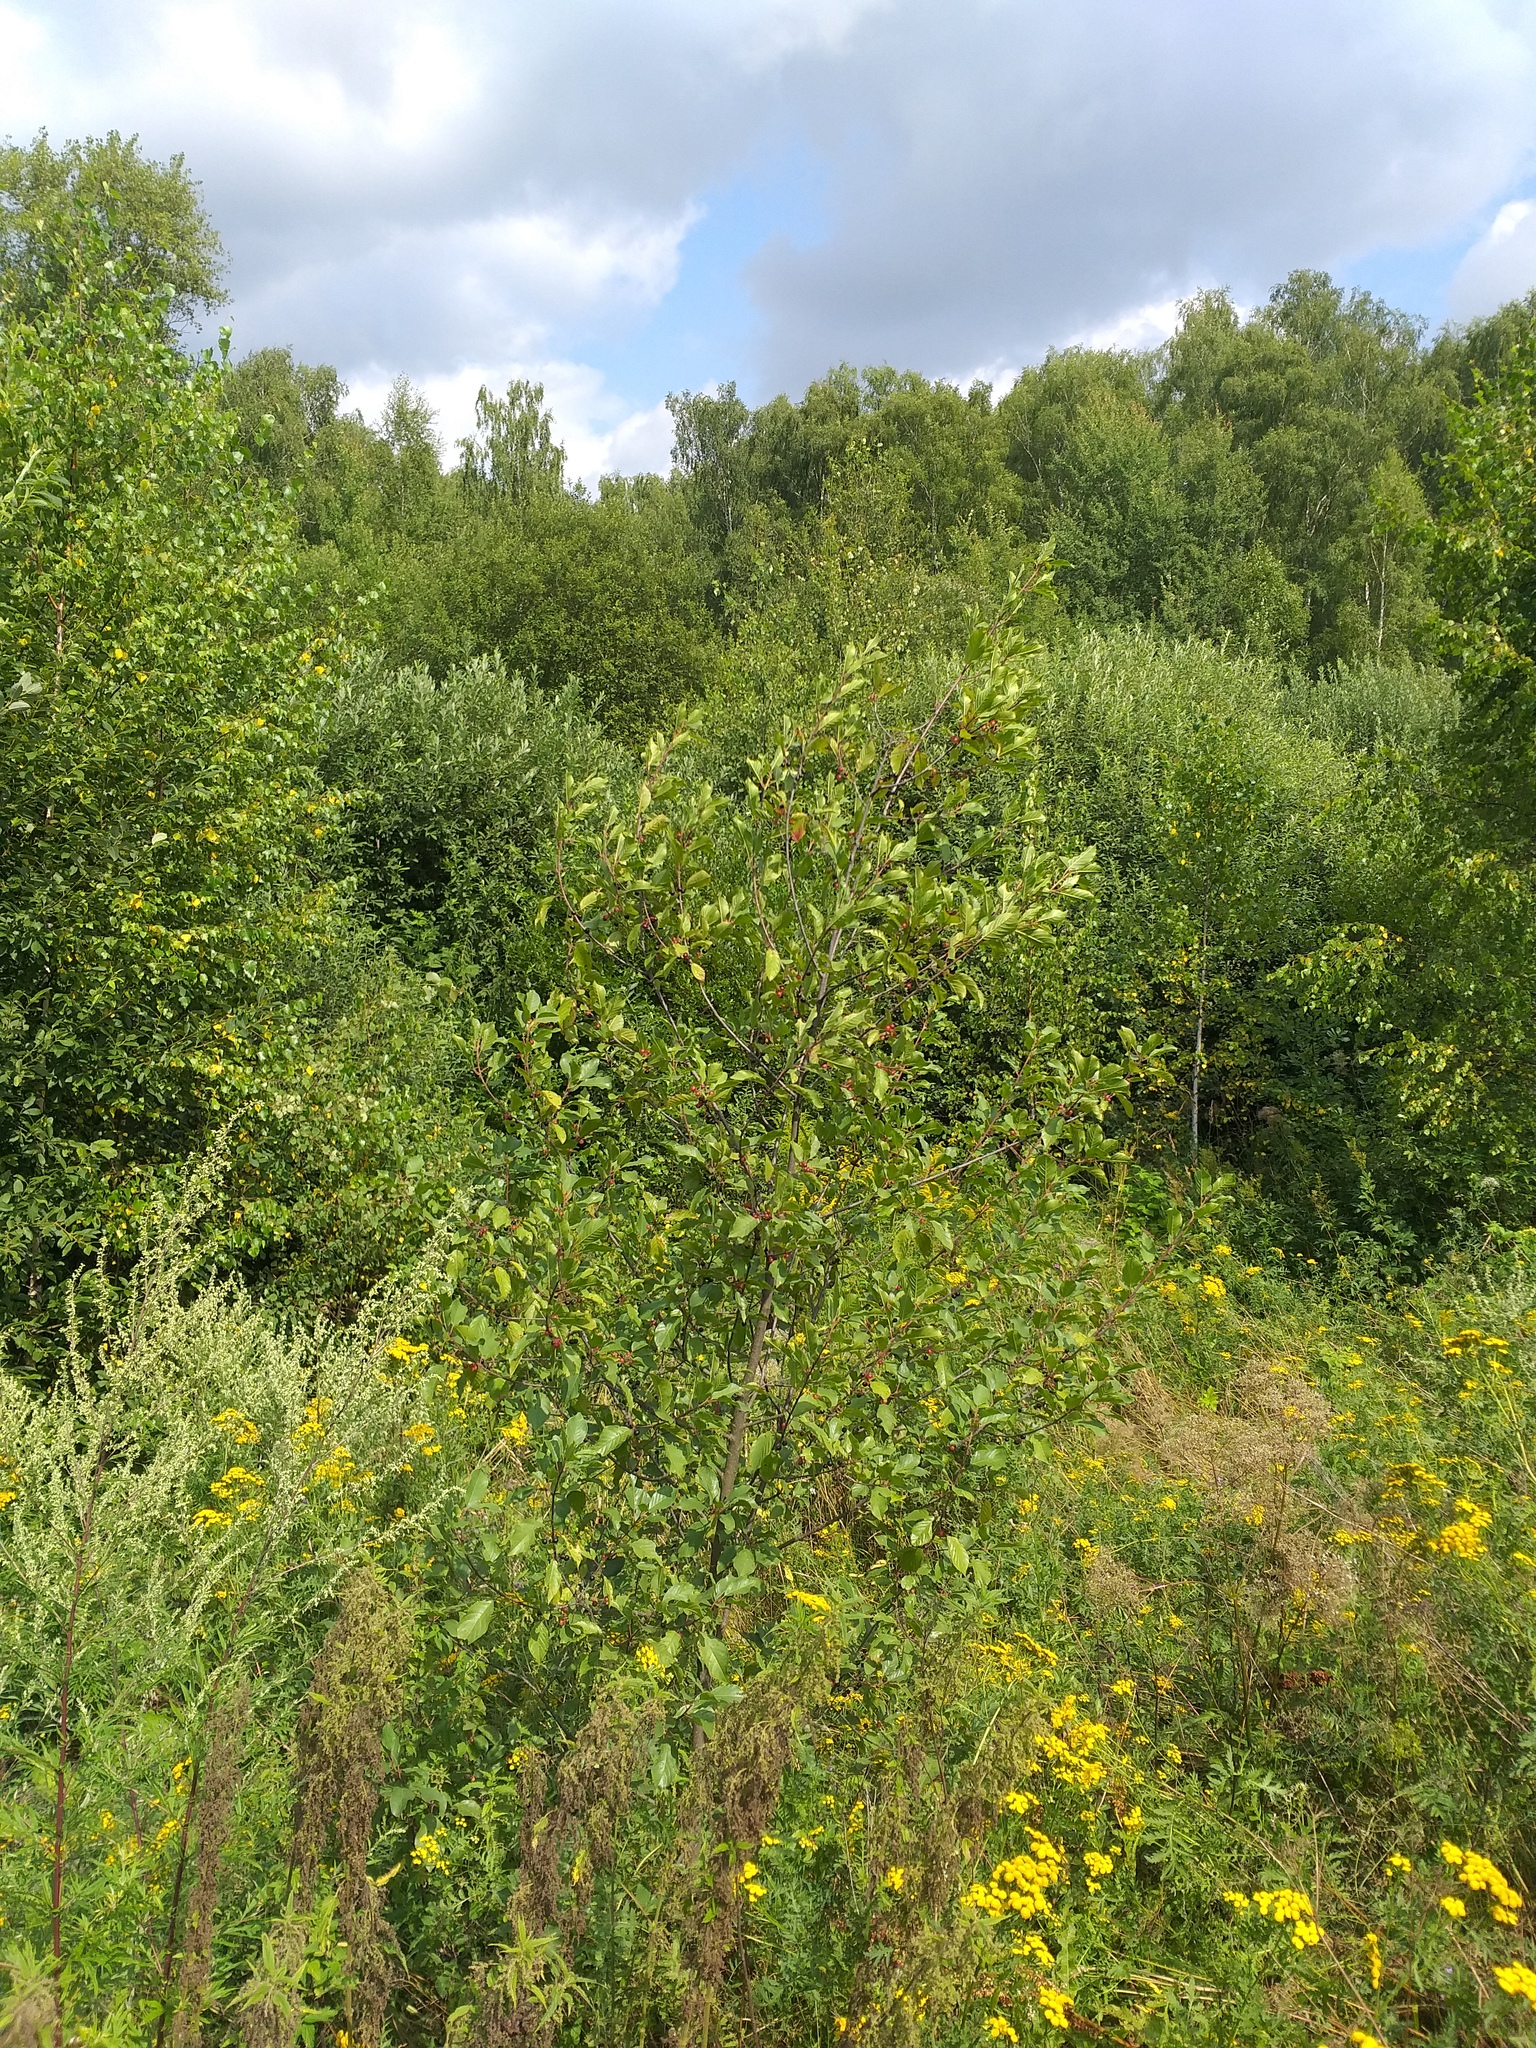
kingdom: Plantae
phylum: Tracheophyta
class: Magnoliopsida
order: Rosales
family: Rhamnaceae
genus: Frangula
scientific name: Frangula alnus
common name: Alder buckthorn
